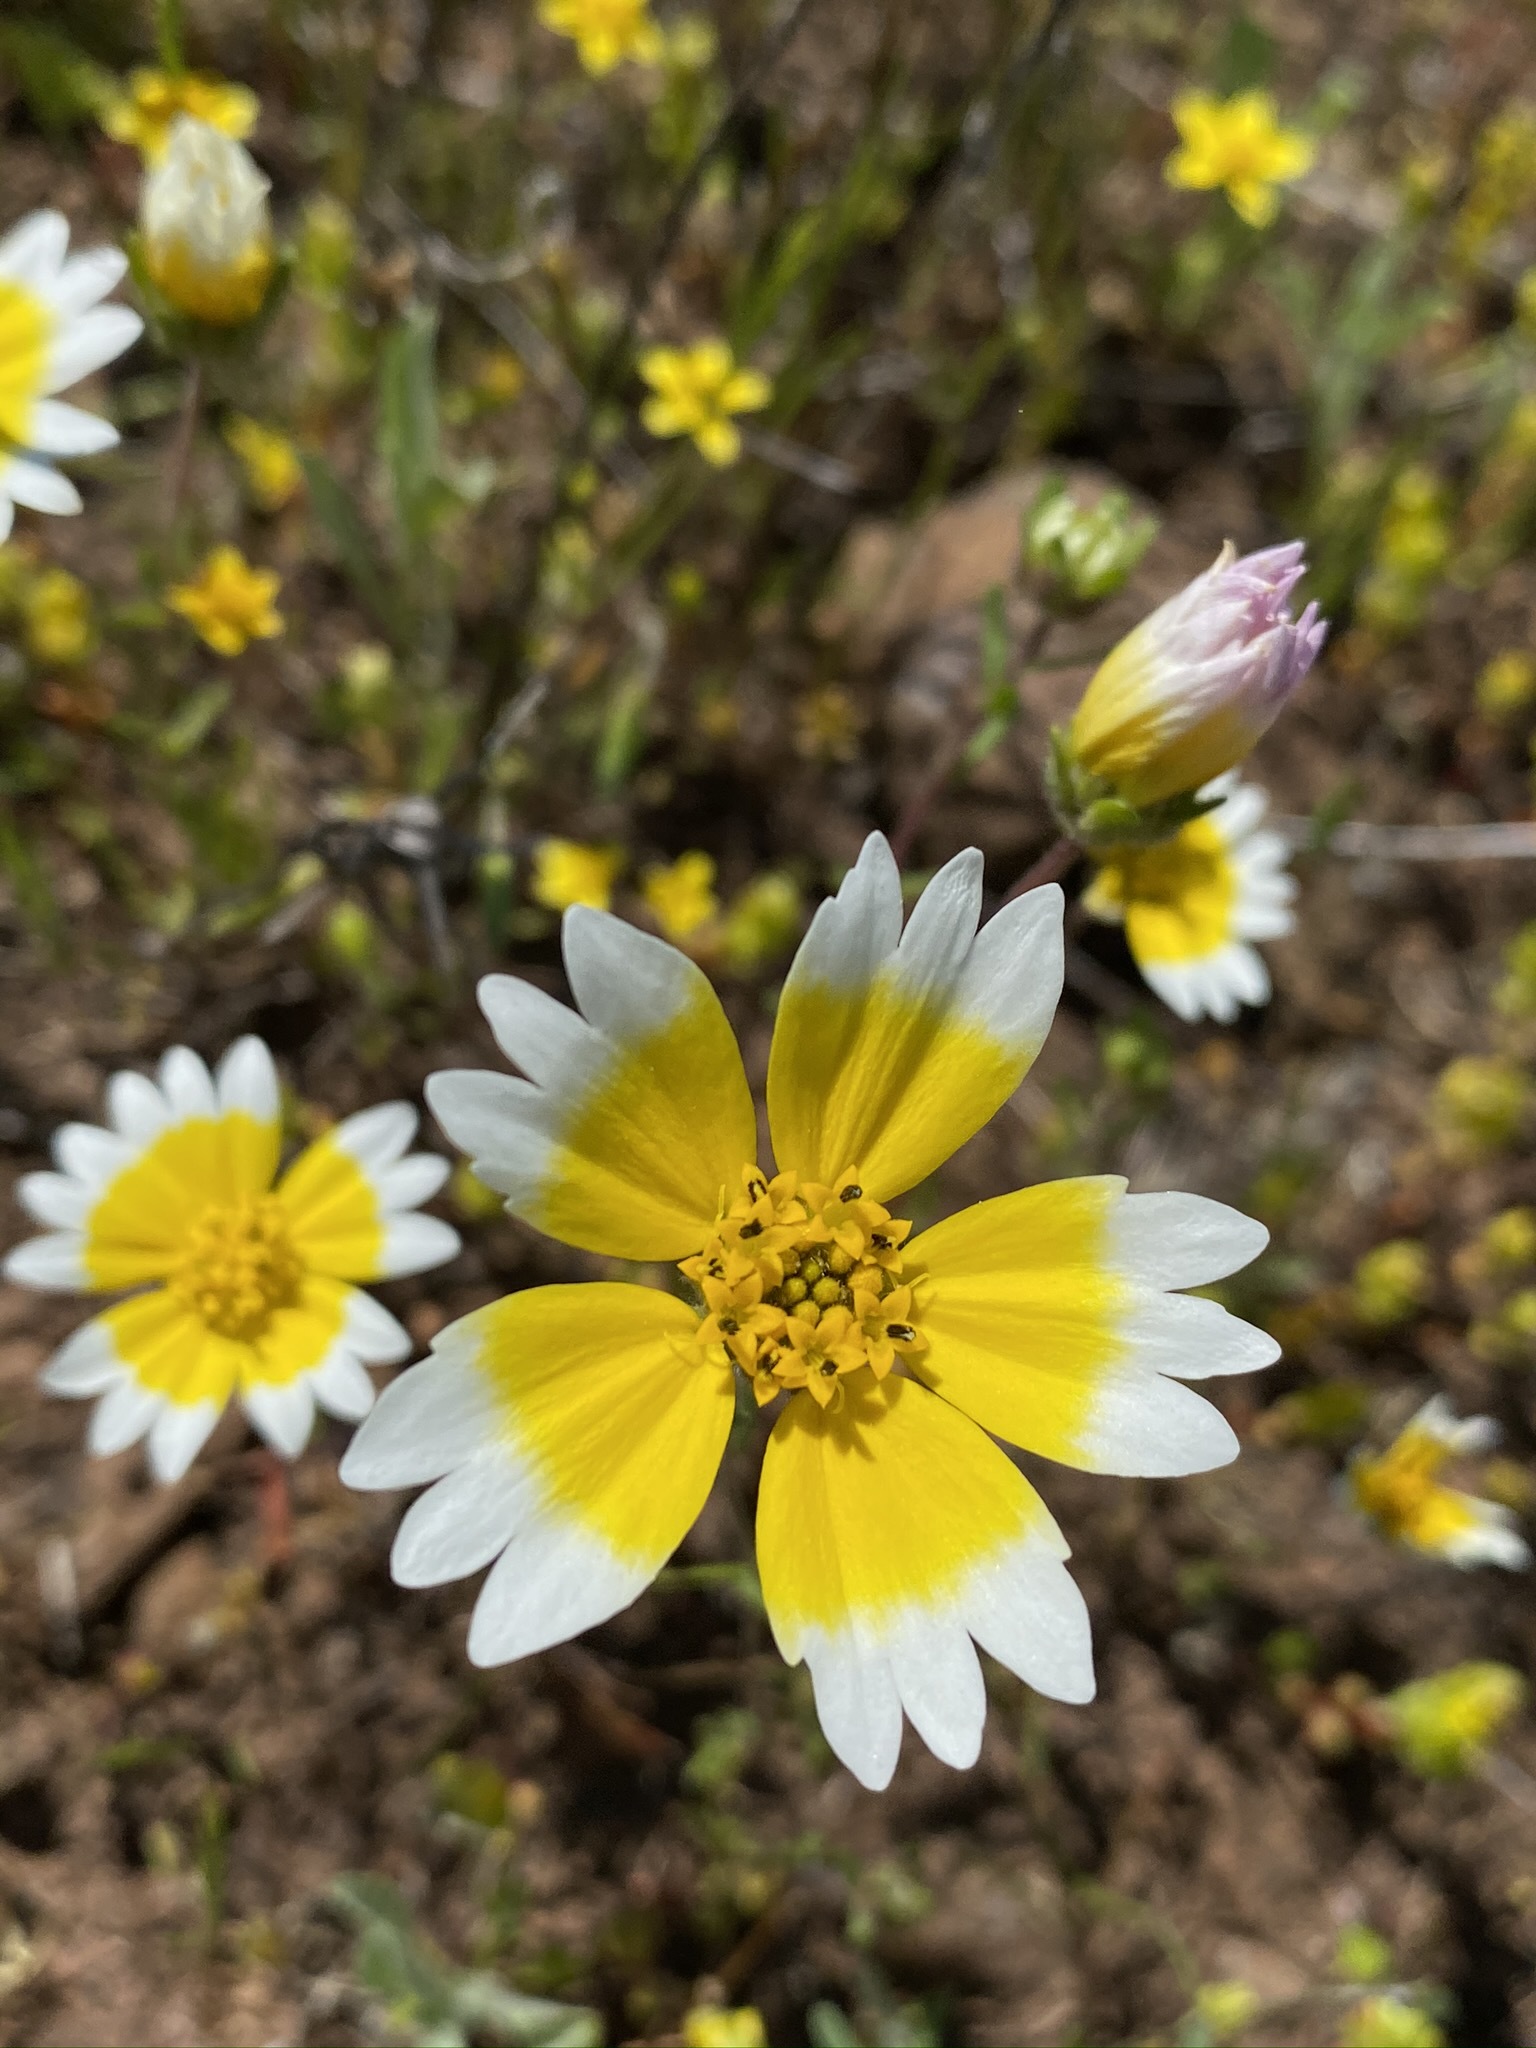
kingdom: Plantae
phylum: Tracheophyta
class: Magnoliopsida
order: Asterales
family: Asteraceae
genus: Layia
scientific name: Layia fremontii
